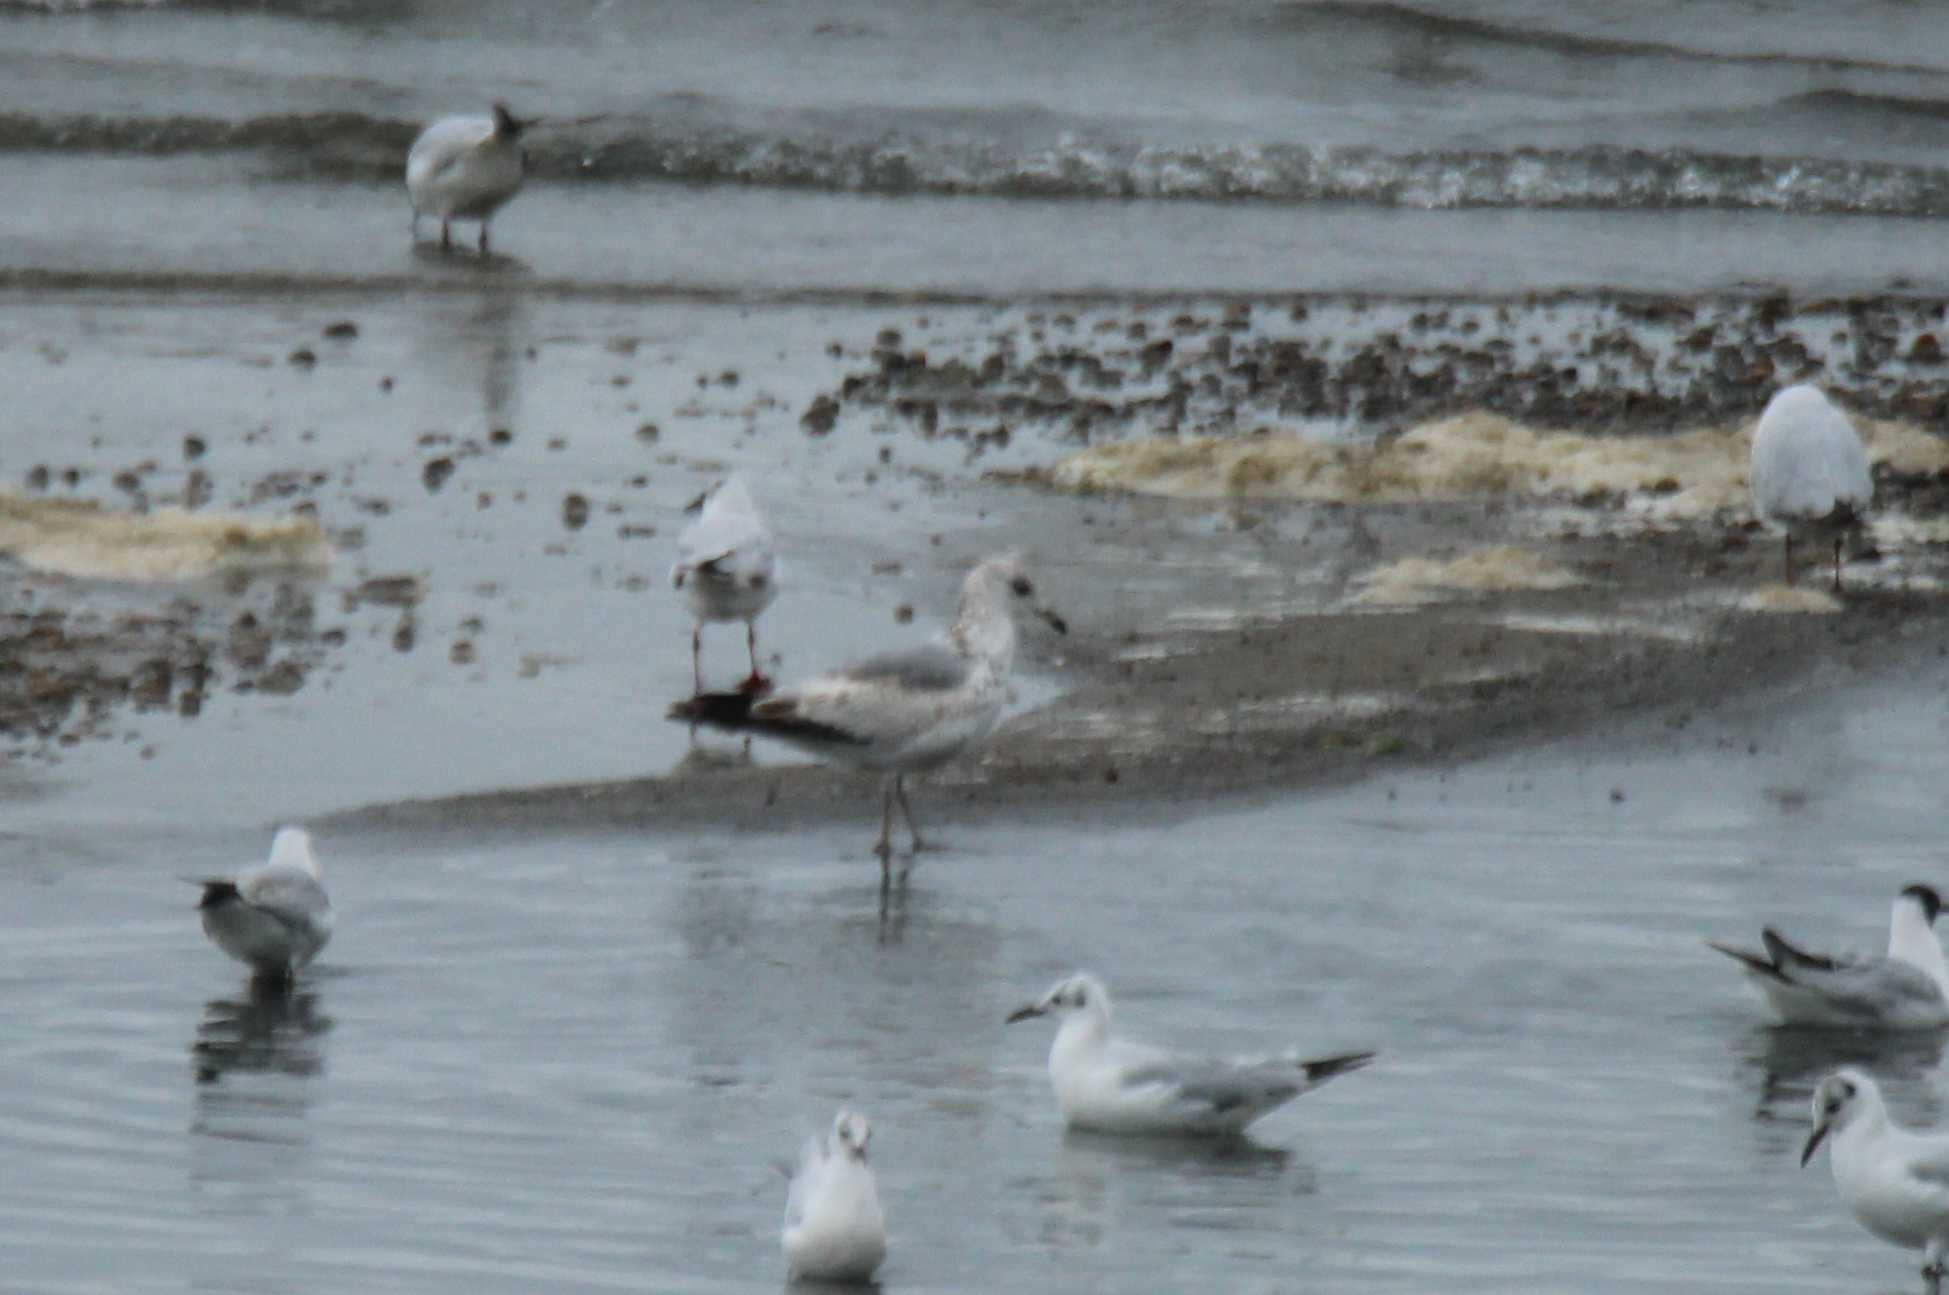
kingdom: Animalia
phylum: Chordata
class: Aves
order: Charadriiformes
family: Laridae
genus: Larus
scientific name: Larus canus
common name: Mew gull
